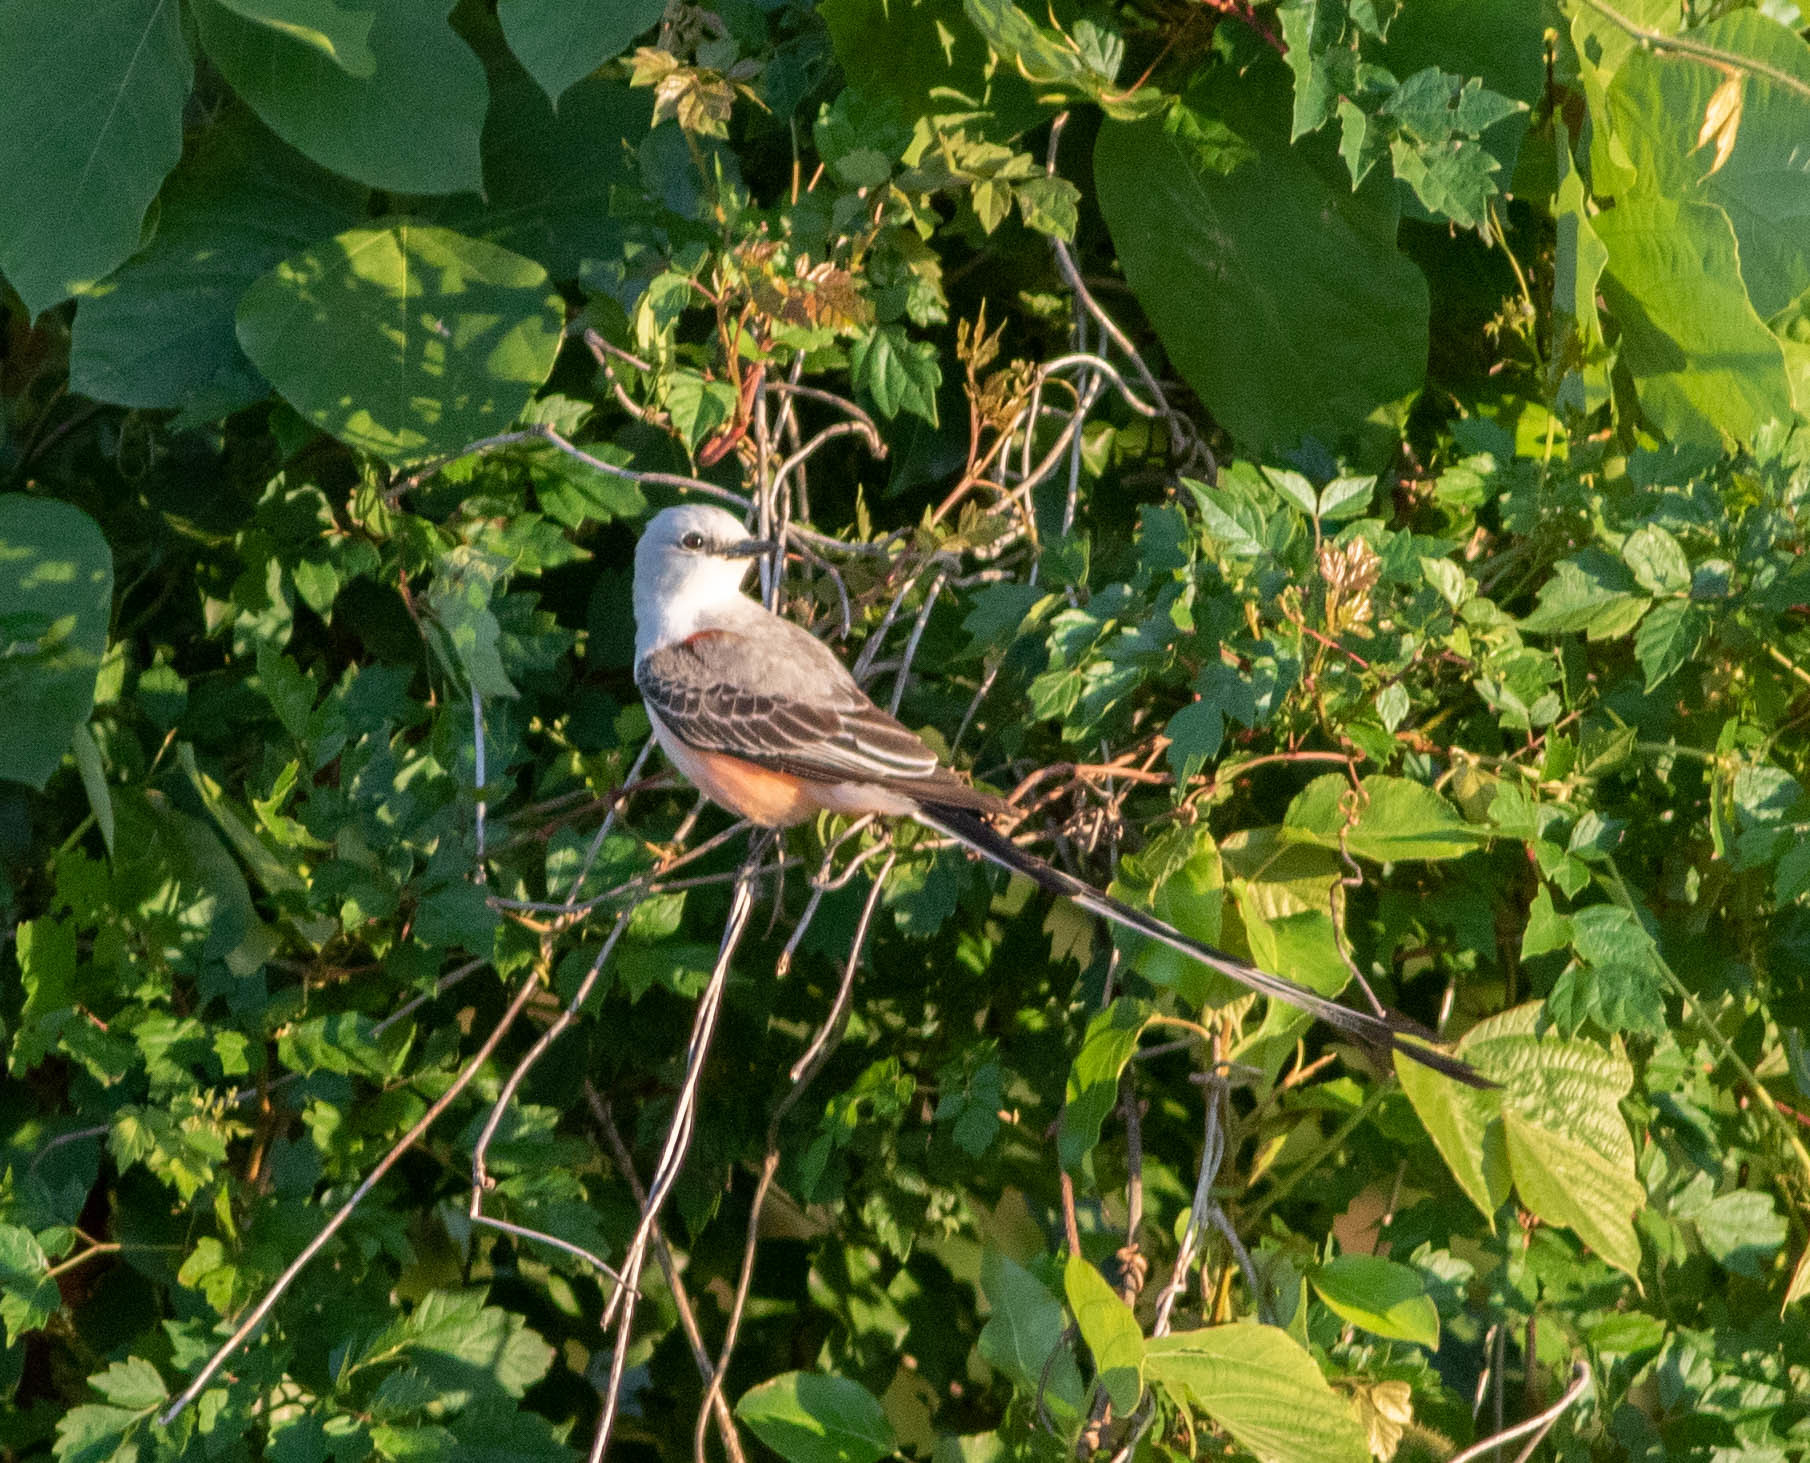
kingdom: Animalia
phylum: Chordata
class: Aves
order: Passeriformes
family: Tyrannidae
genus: Tyrannus
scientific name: Tyrannus forficatus
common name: Scissor-tailed flycatcher
